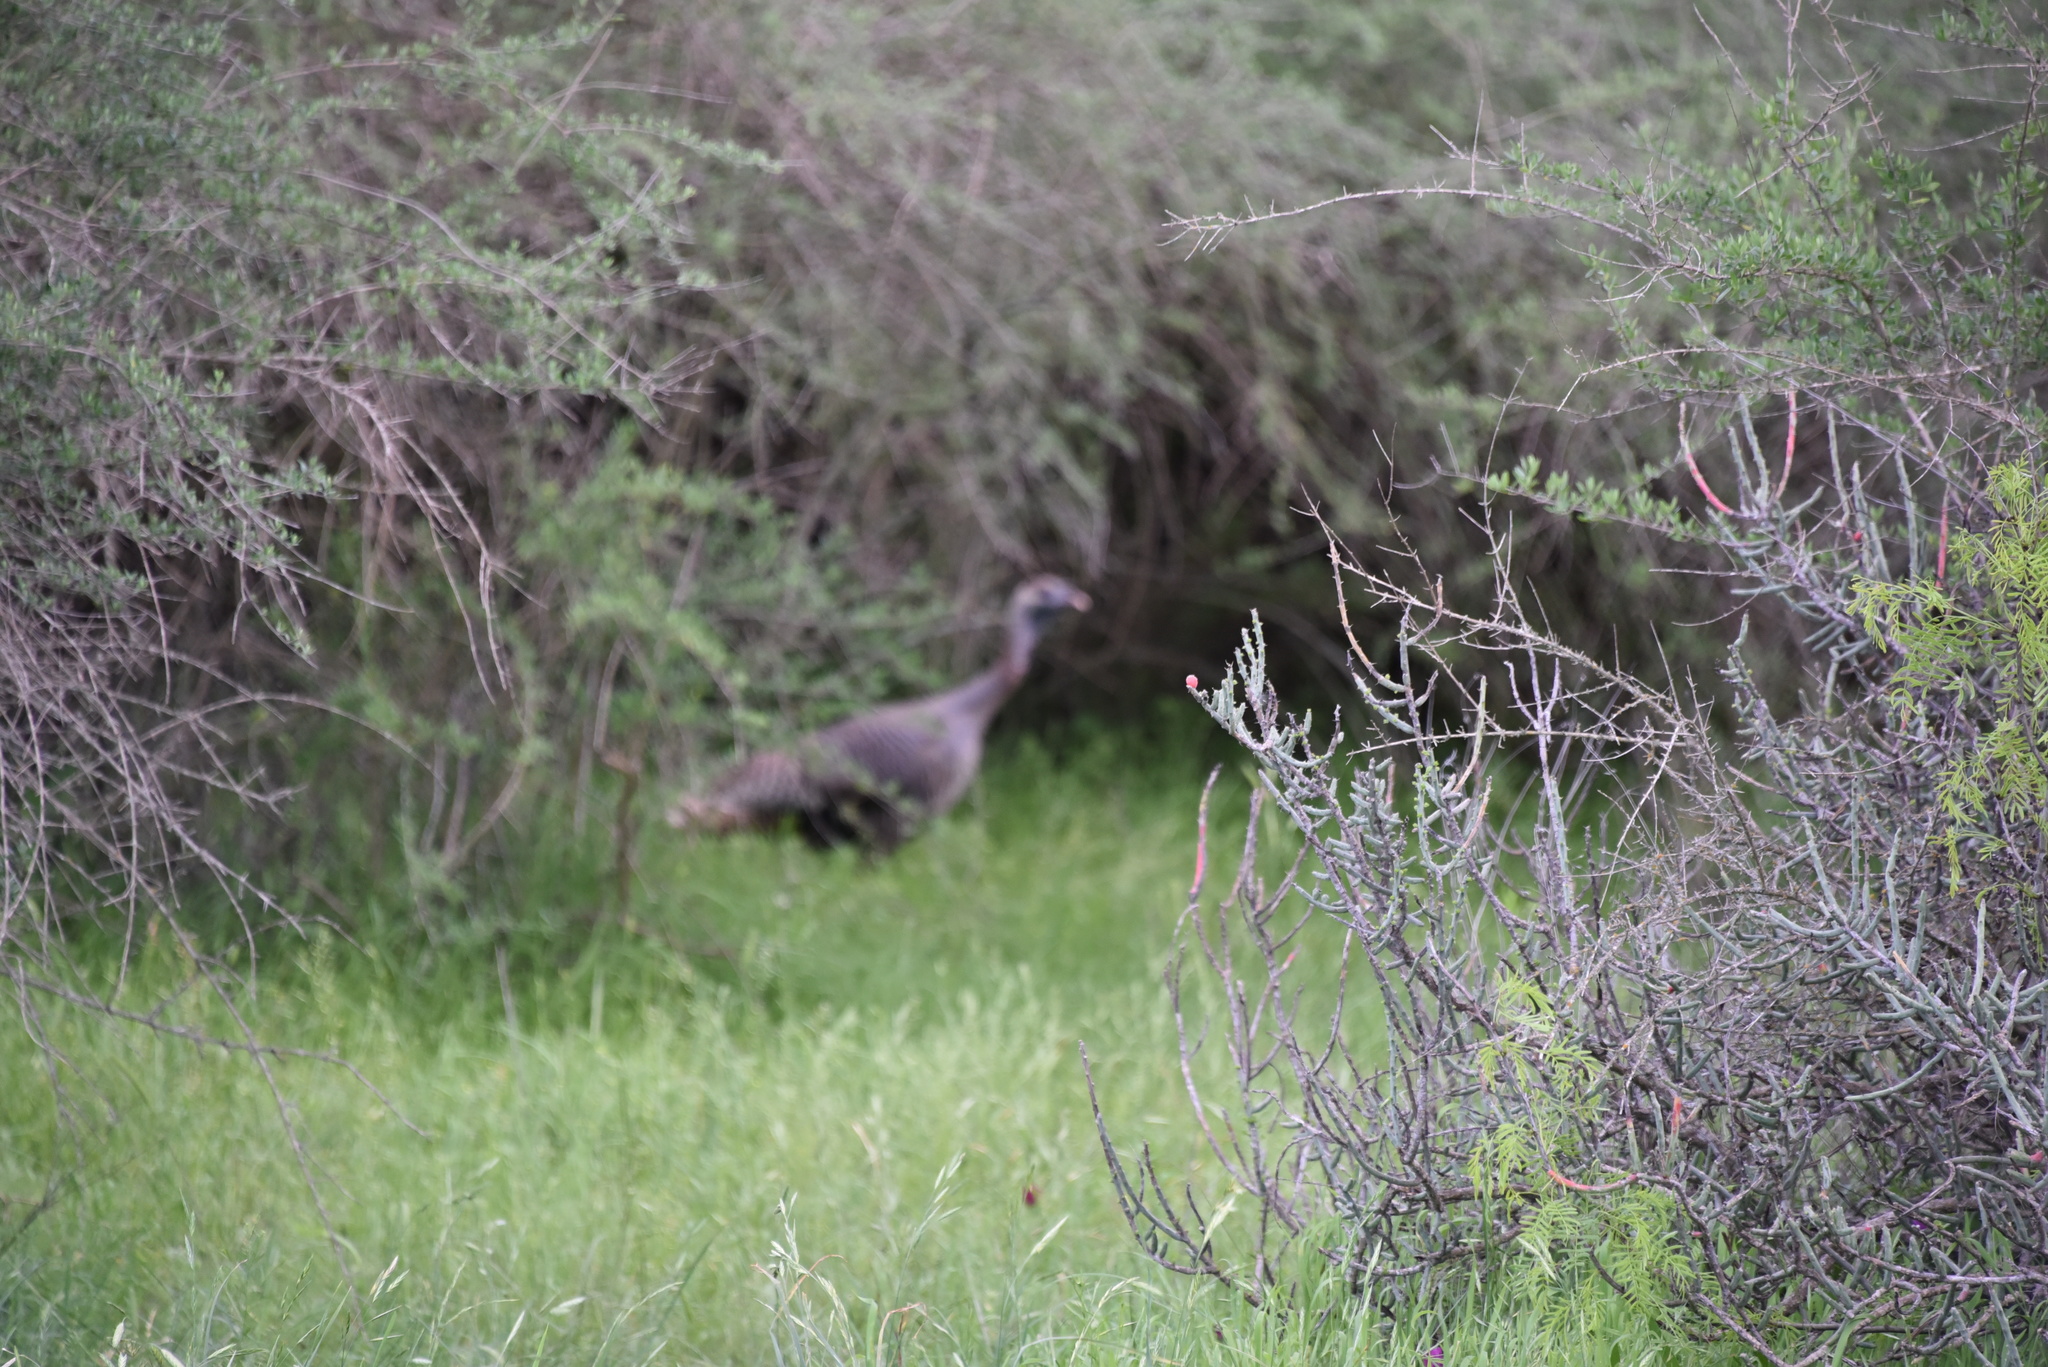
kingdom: Animalia
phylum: Chordata
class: Aves
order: Galliformes
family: Phasianidae
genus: Meleagris
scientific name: Meleagris gallopavo
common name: Wild turkey
